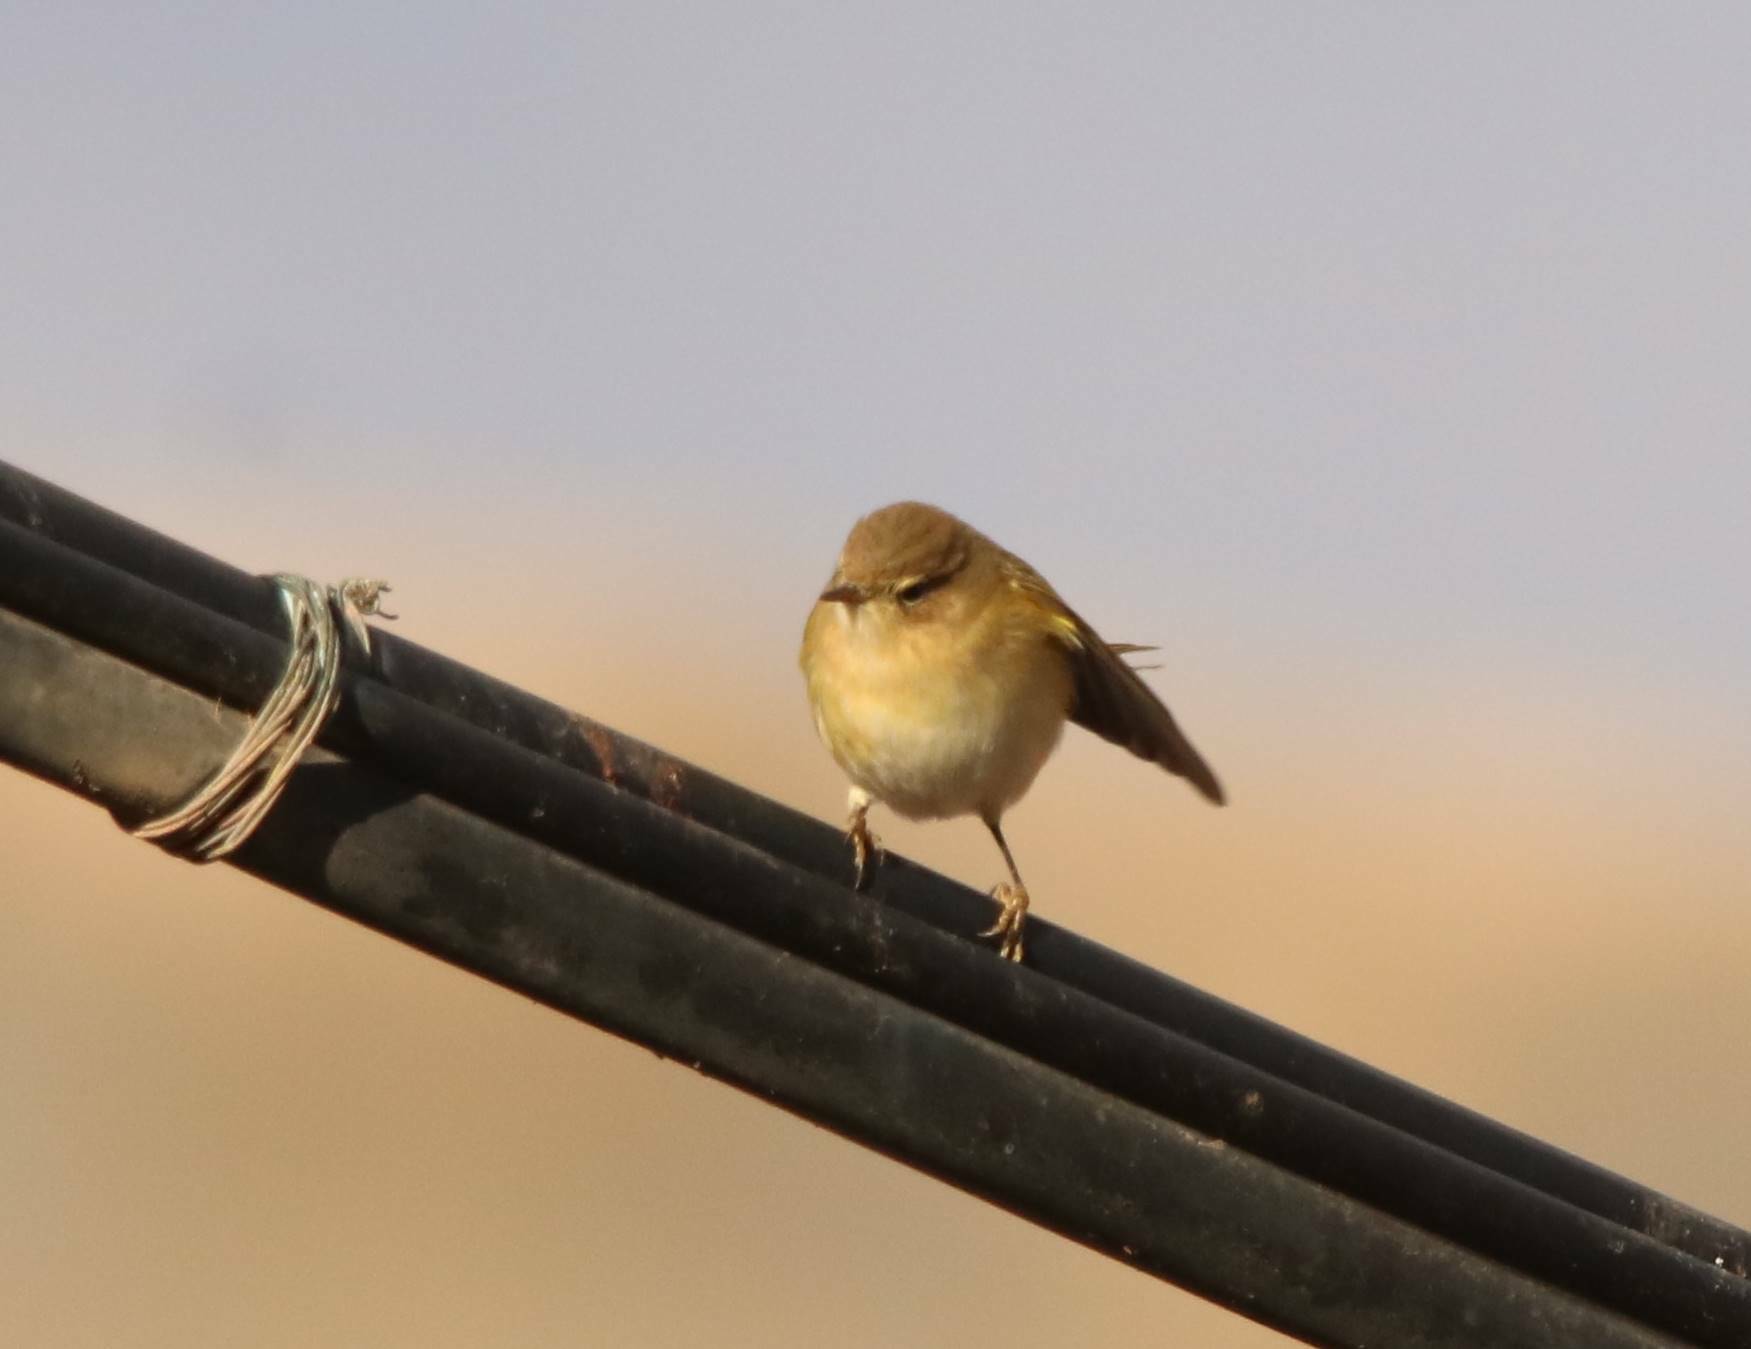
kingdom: Animalia
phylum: Chordata
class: Aves
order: Passeriformes
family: Phylloscopidae
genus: Phylloscopus
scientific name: Phylloscopus collybita
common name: Common chiffchaff
